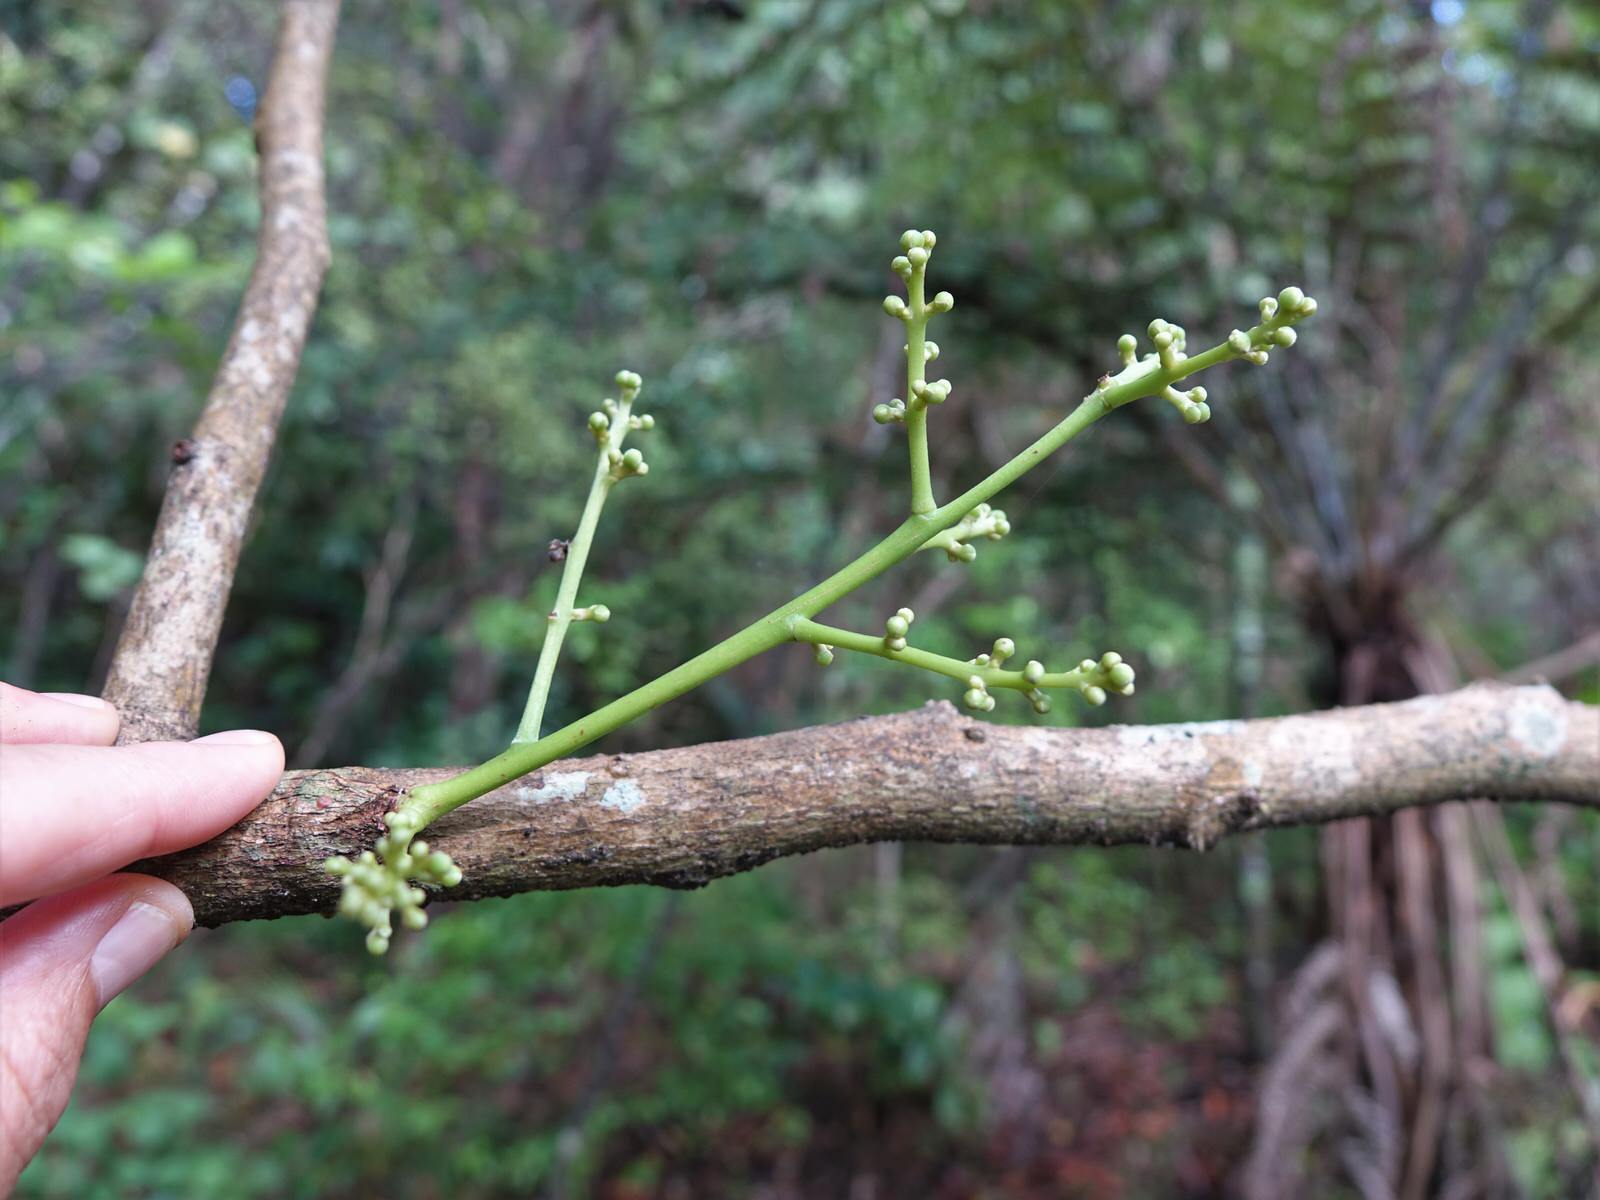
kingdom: Plantae
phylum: Tracheophyta
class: Magnoliopsida
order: Sapindales
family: Meliaceae
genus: Didymocheton
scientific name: Didymocheton spectabilis
